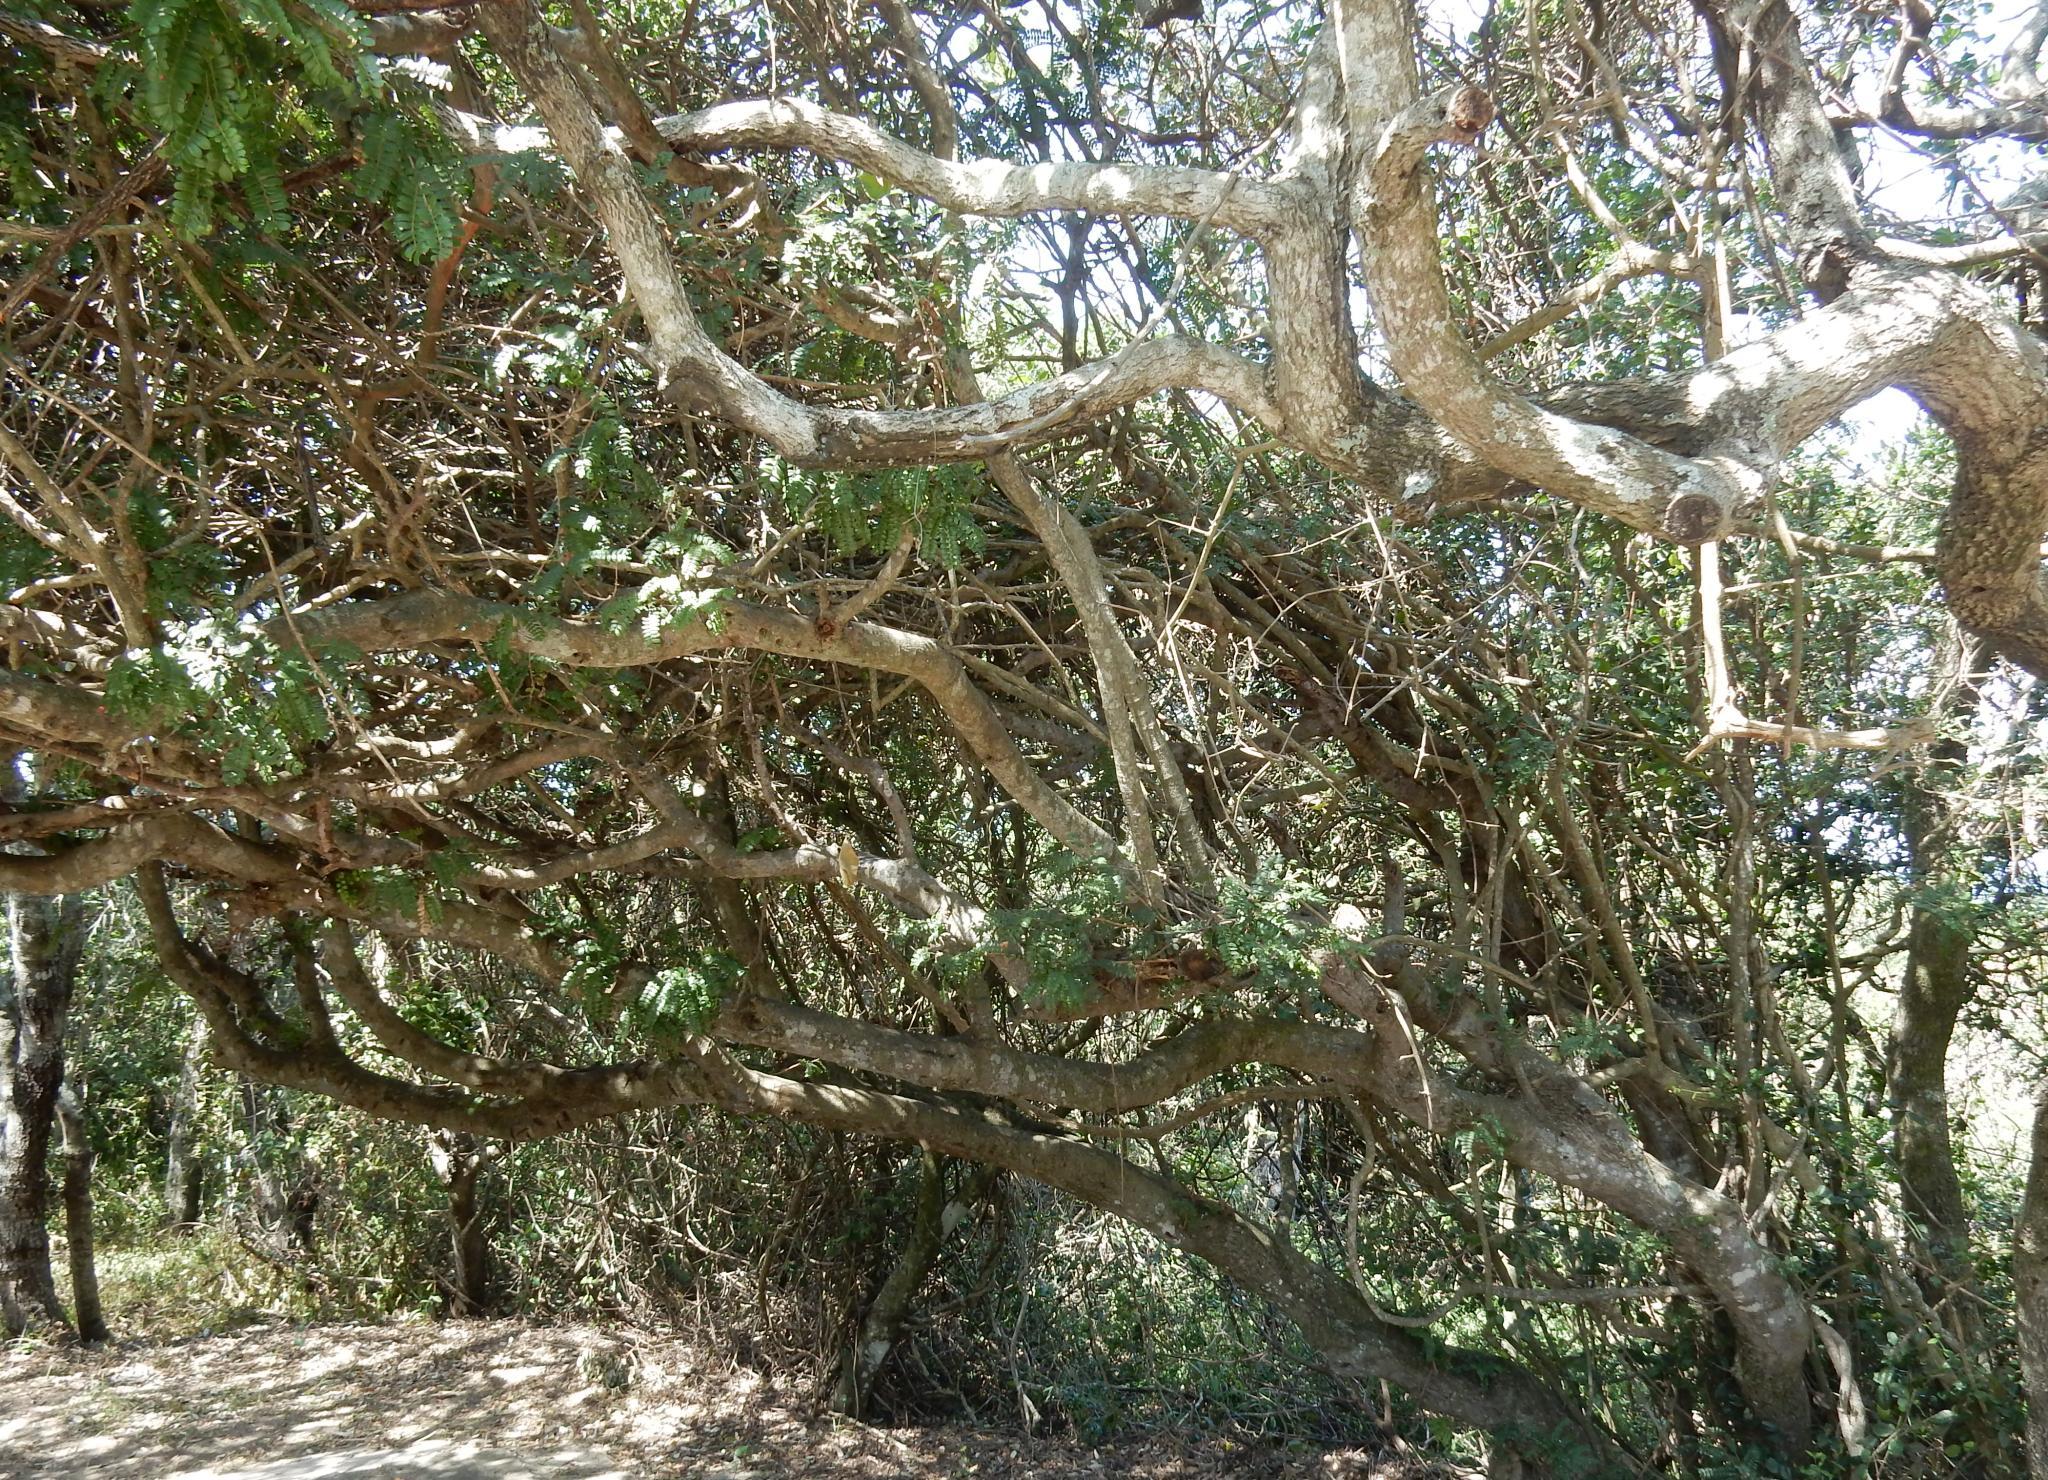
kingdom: Plantae
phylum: Tracheophyta
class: Magnoliopsida
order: Fabales
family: Fabaceae
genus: Schotia
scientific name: Schotia afra
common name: Hottentot's bean
